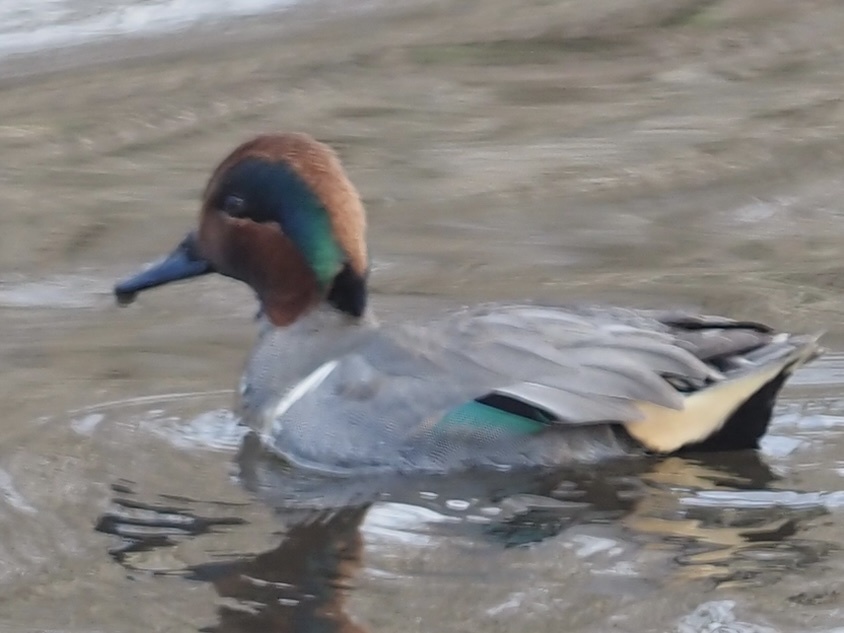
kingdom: Animalia
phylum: Chordata
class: Aves
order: Anseriformes
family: Anatidae
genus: Anas
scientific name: Anas crecca
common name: Eurasian teal
